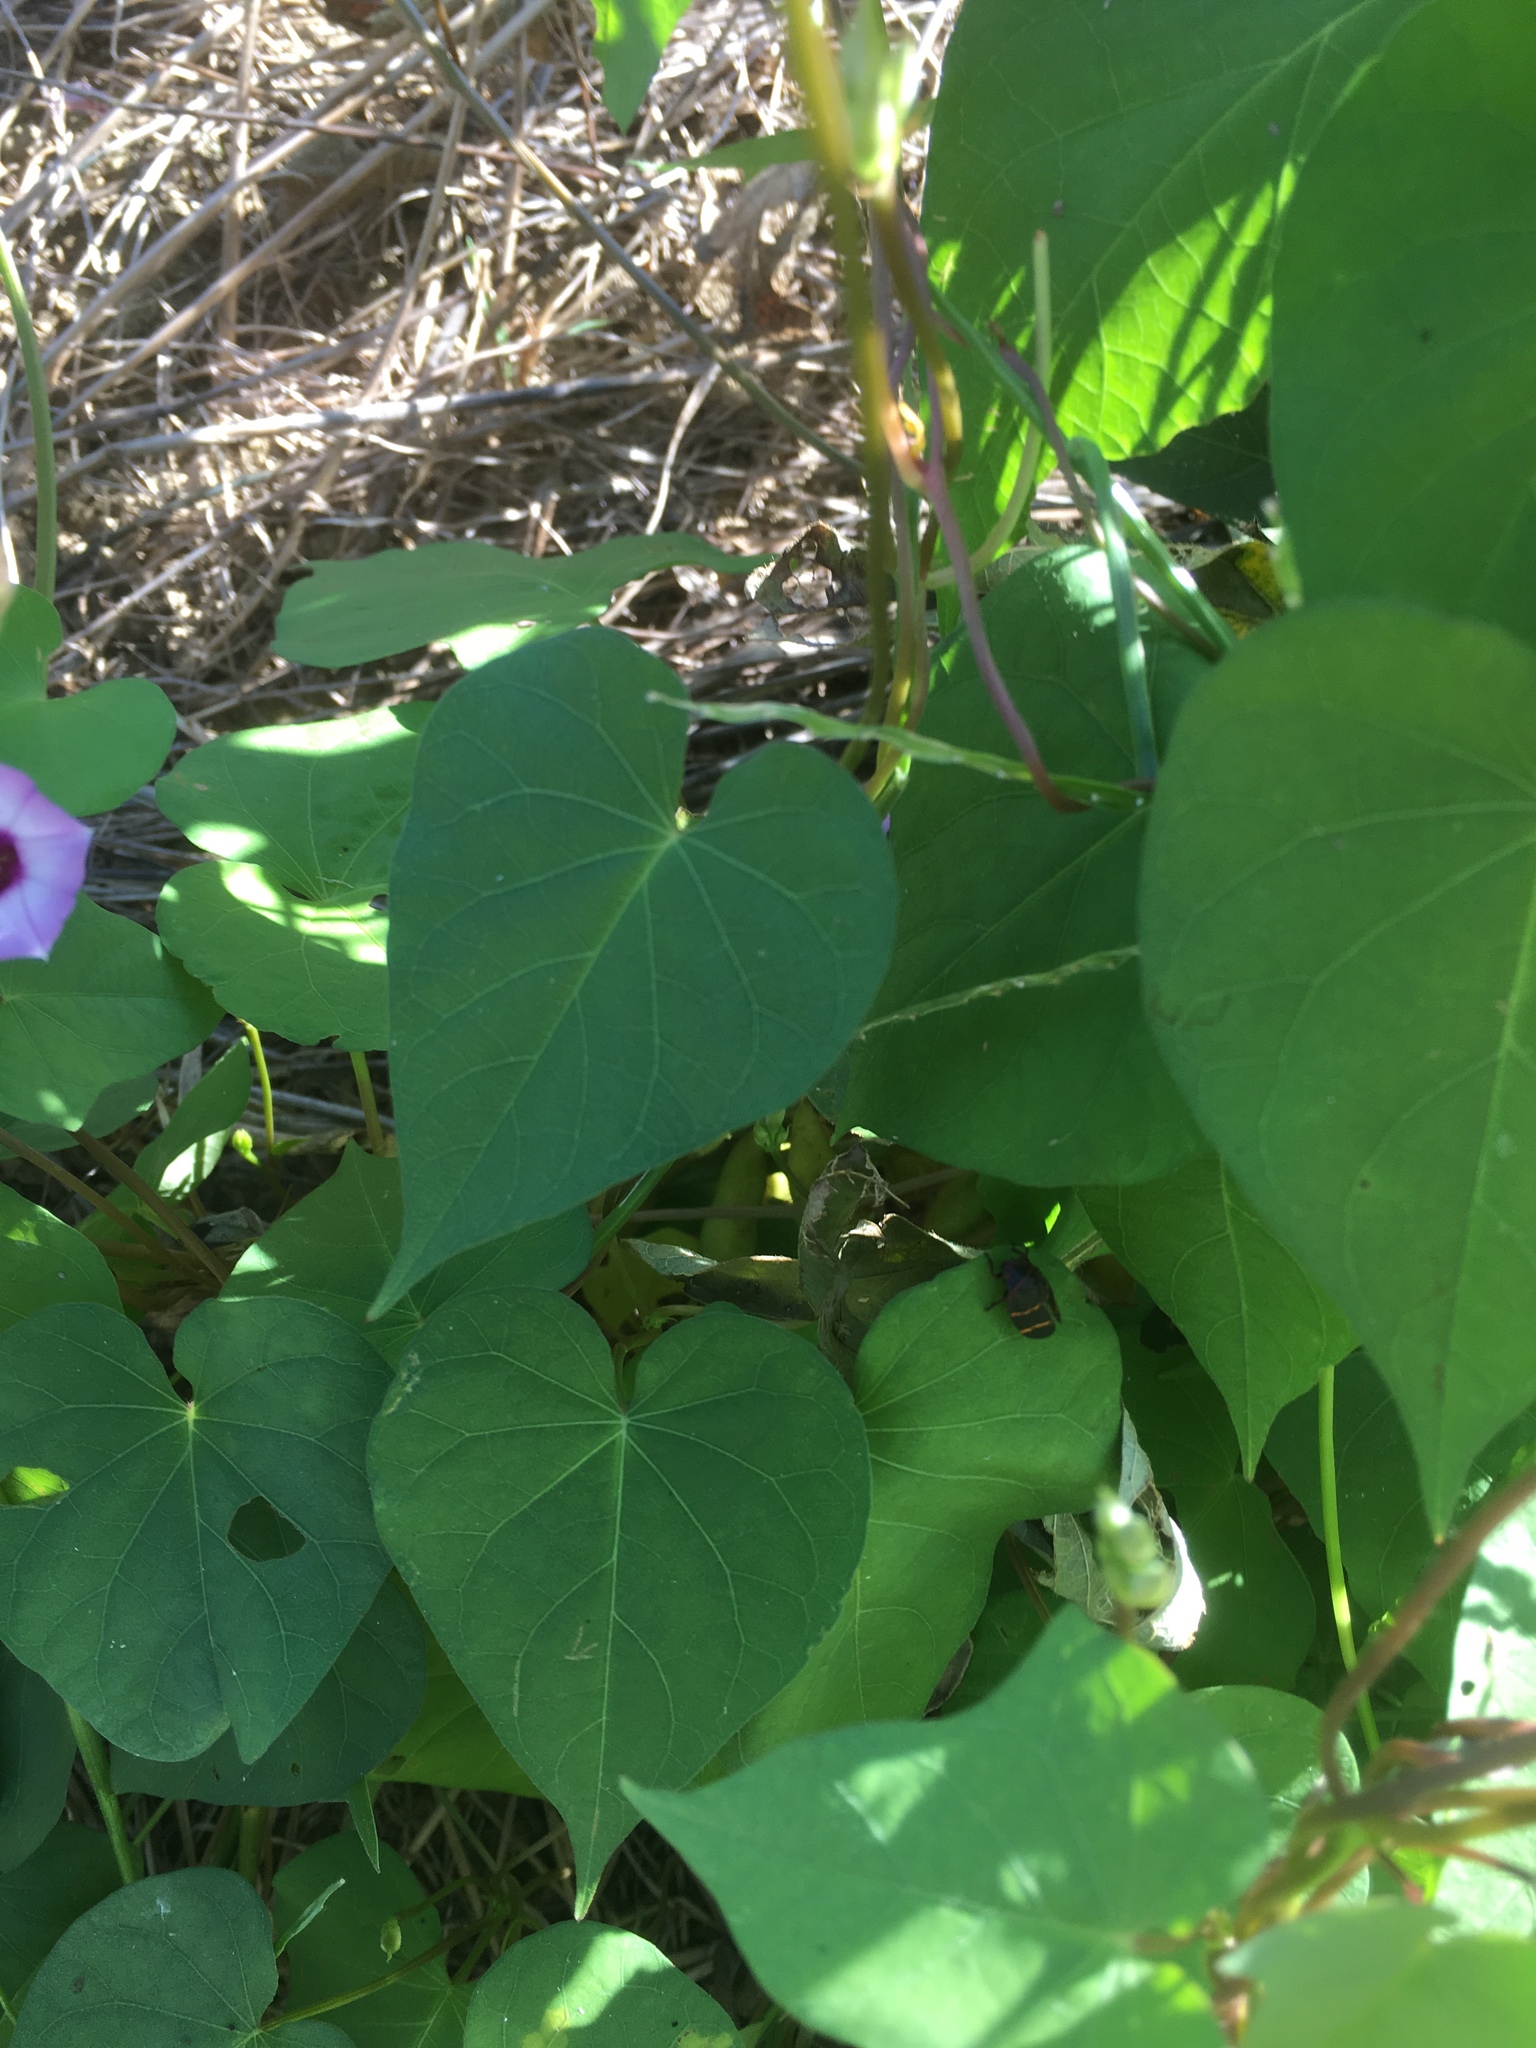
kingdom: Plantae
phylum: Tracheophyta
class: Magnoliopsida
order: Solanales
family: Convolvulaceae
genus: Ipomoea
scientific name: Ipomoea triloba
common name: Little-bell
